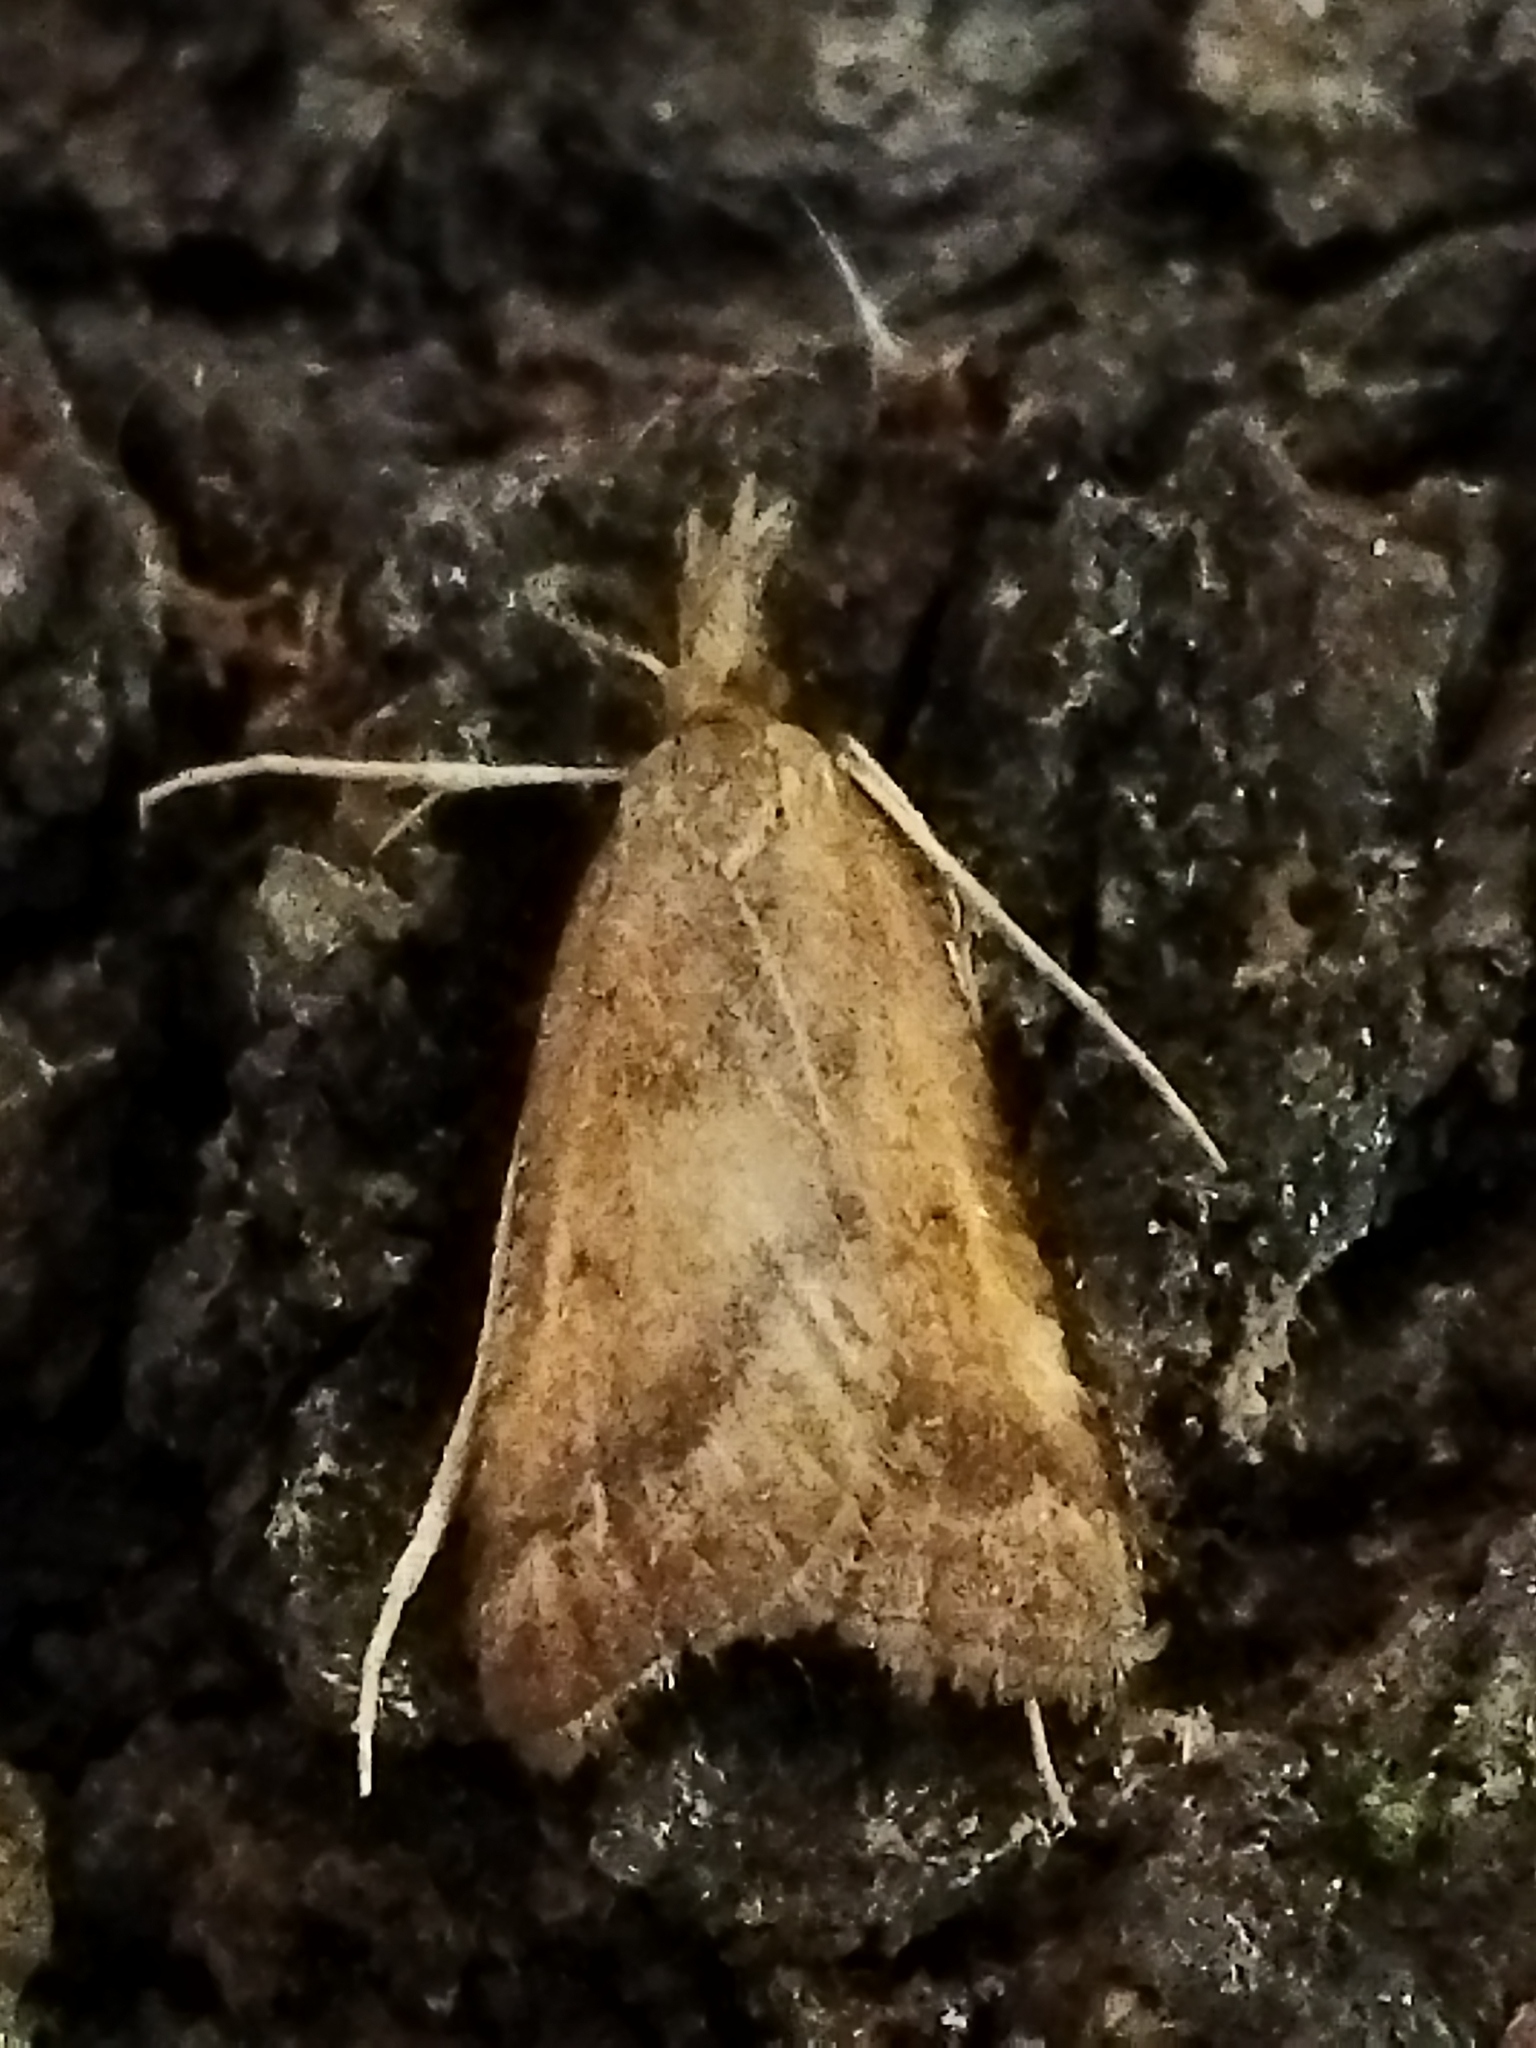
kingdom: Animalia
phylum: Arthropoda
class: Insecta
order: Lepidoptera
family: Pyralidae
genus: Synaphe
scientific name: Synaphe punctalis
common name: Long-legged tabby
